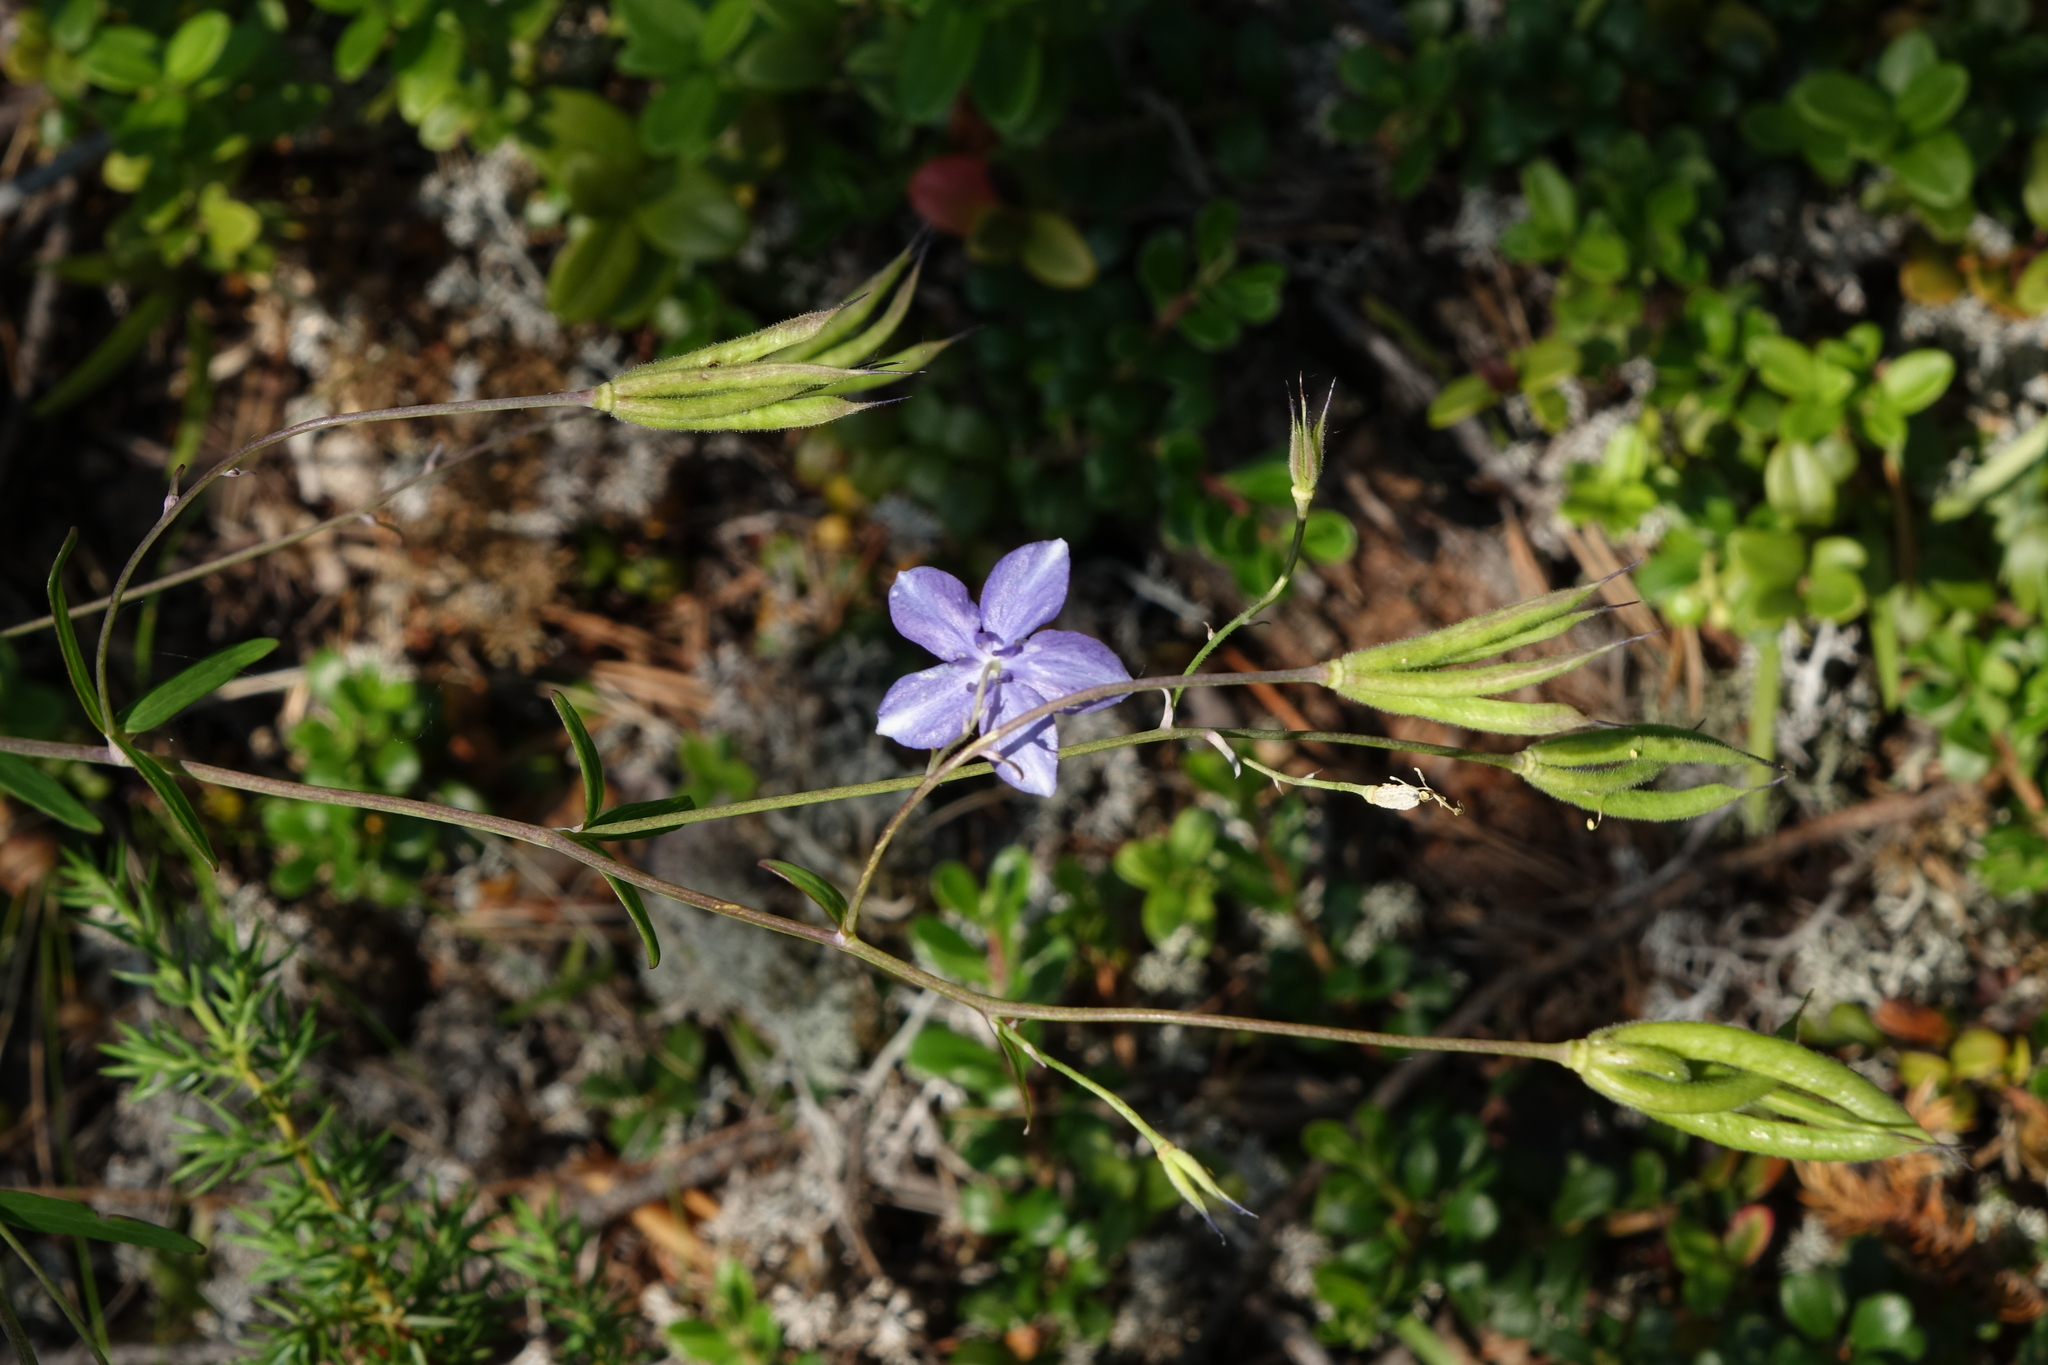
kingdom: Plantae
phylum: Tracheophyta
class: Magnoliopsida
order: Ranunculales
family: Ranunculaceae
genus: Aquilegia
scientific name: Aquilegia parviflora
